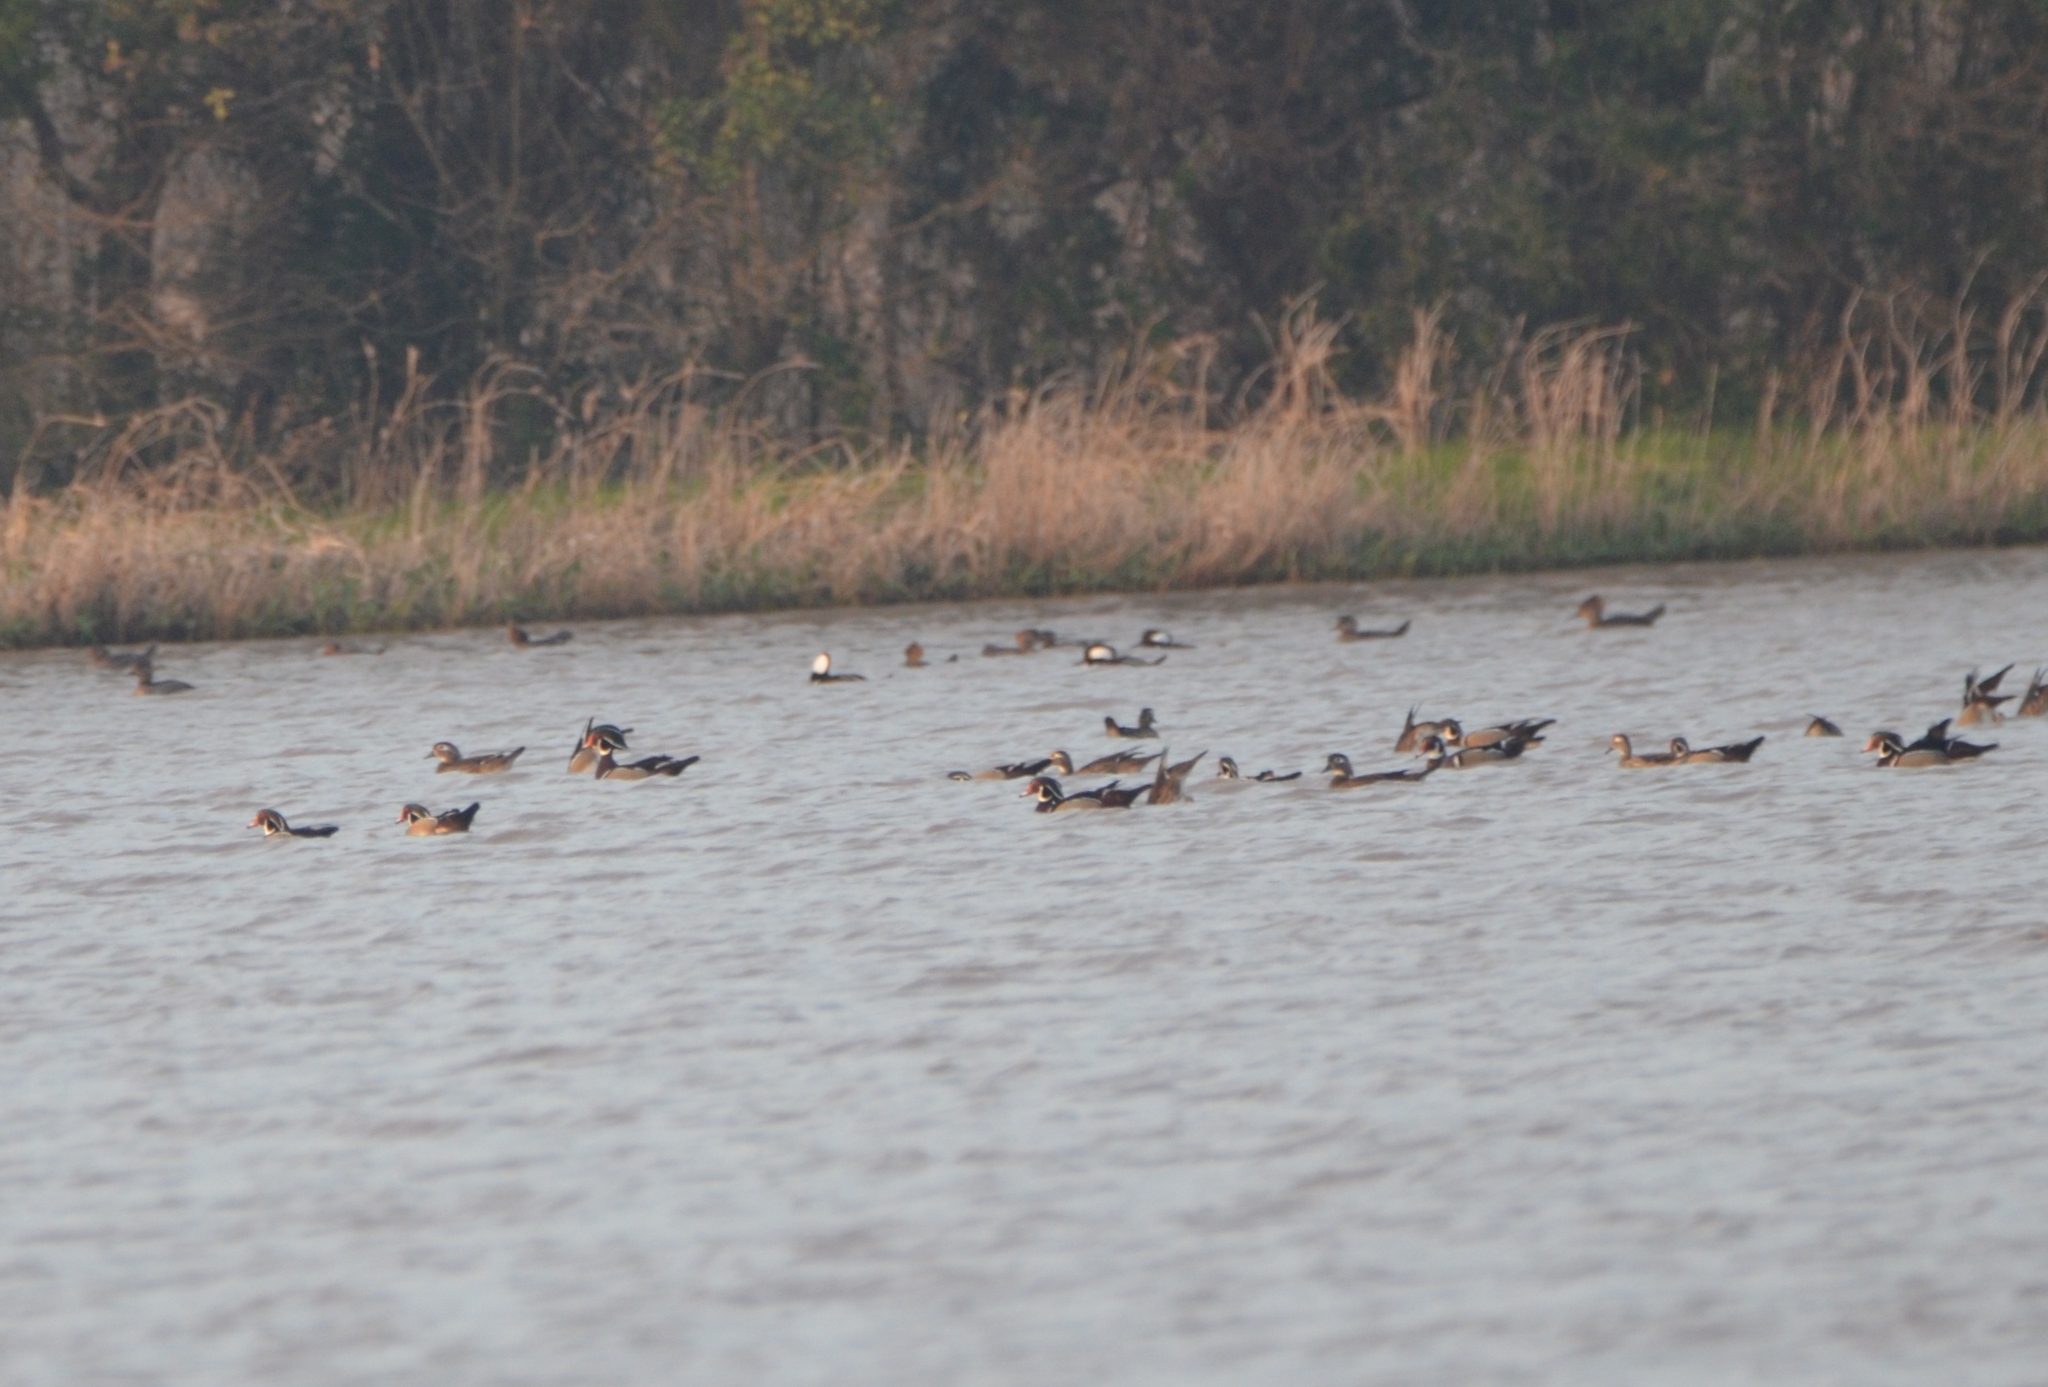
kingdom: Animalia
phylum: Chordata
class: Aves
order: Anseriformes
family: Anatidae
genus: Aix
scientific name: Aix sponsa
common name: Wood duck
